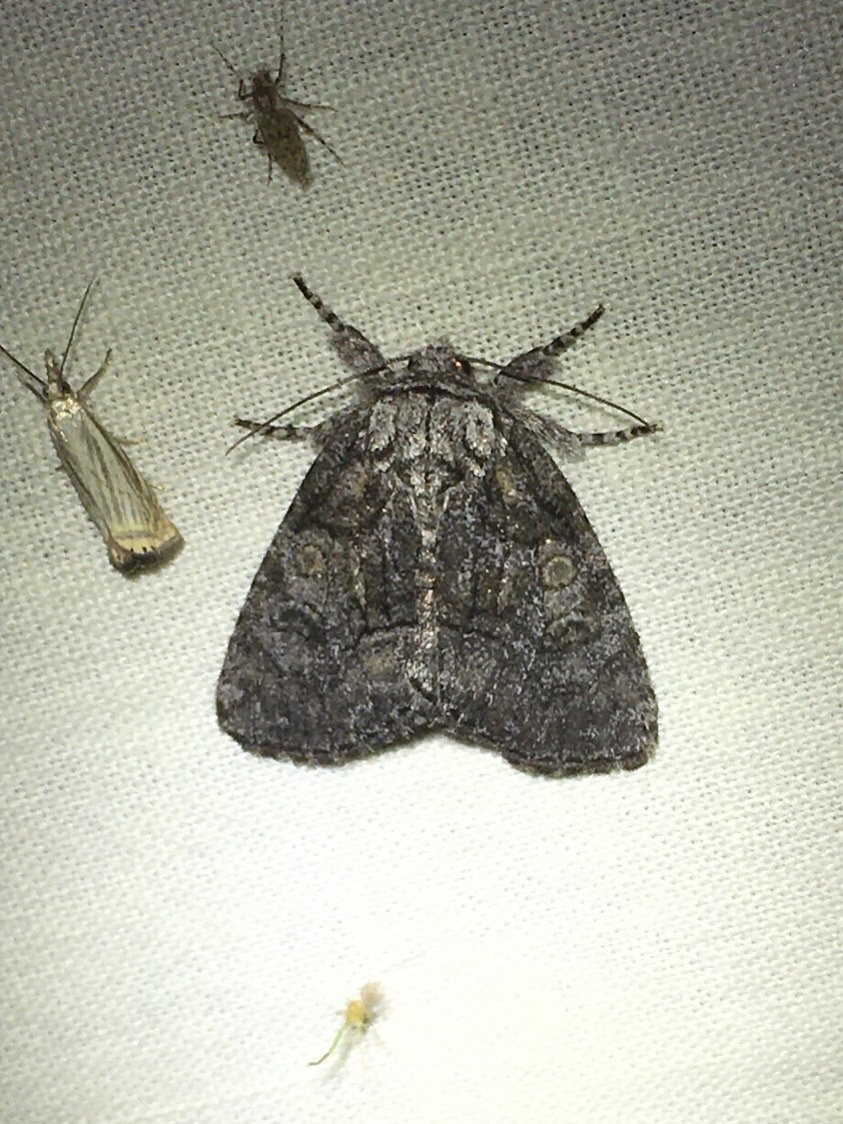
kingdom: Animalia
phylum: Arthropoda
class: Insecta
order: Lepidoptera
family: Noctuidae
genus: Raphia
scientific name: Raphia frater
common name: Brother
